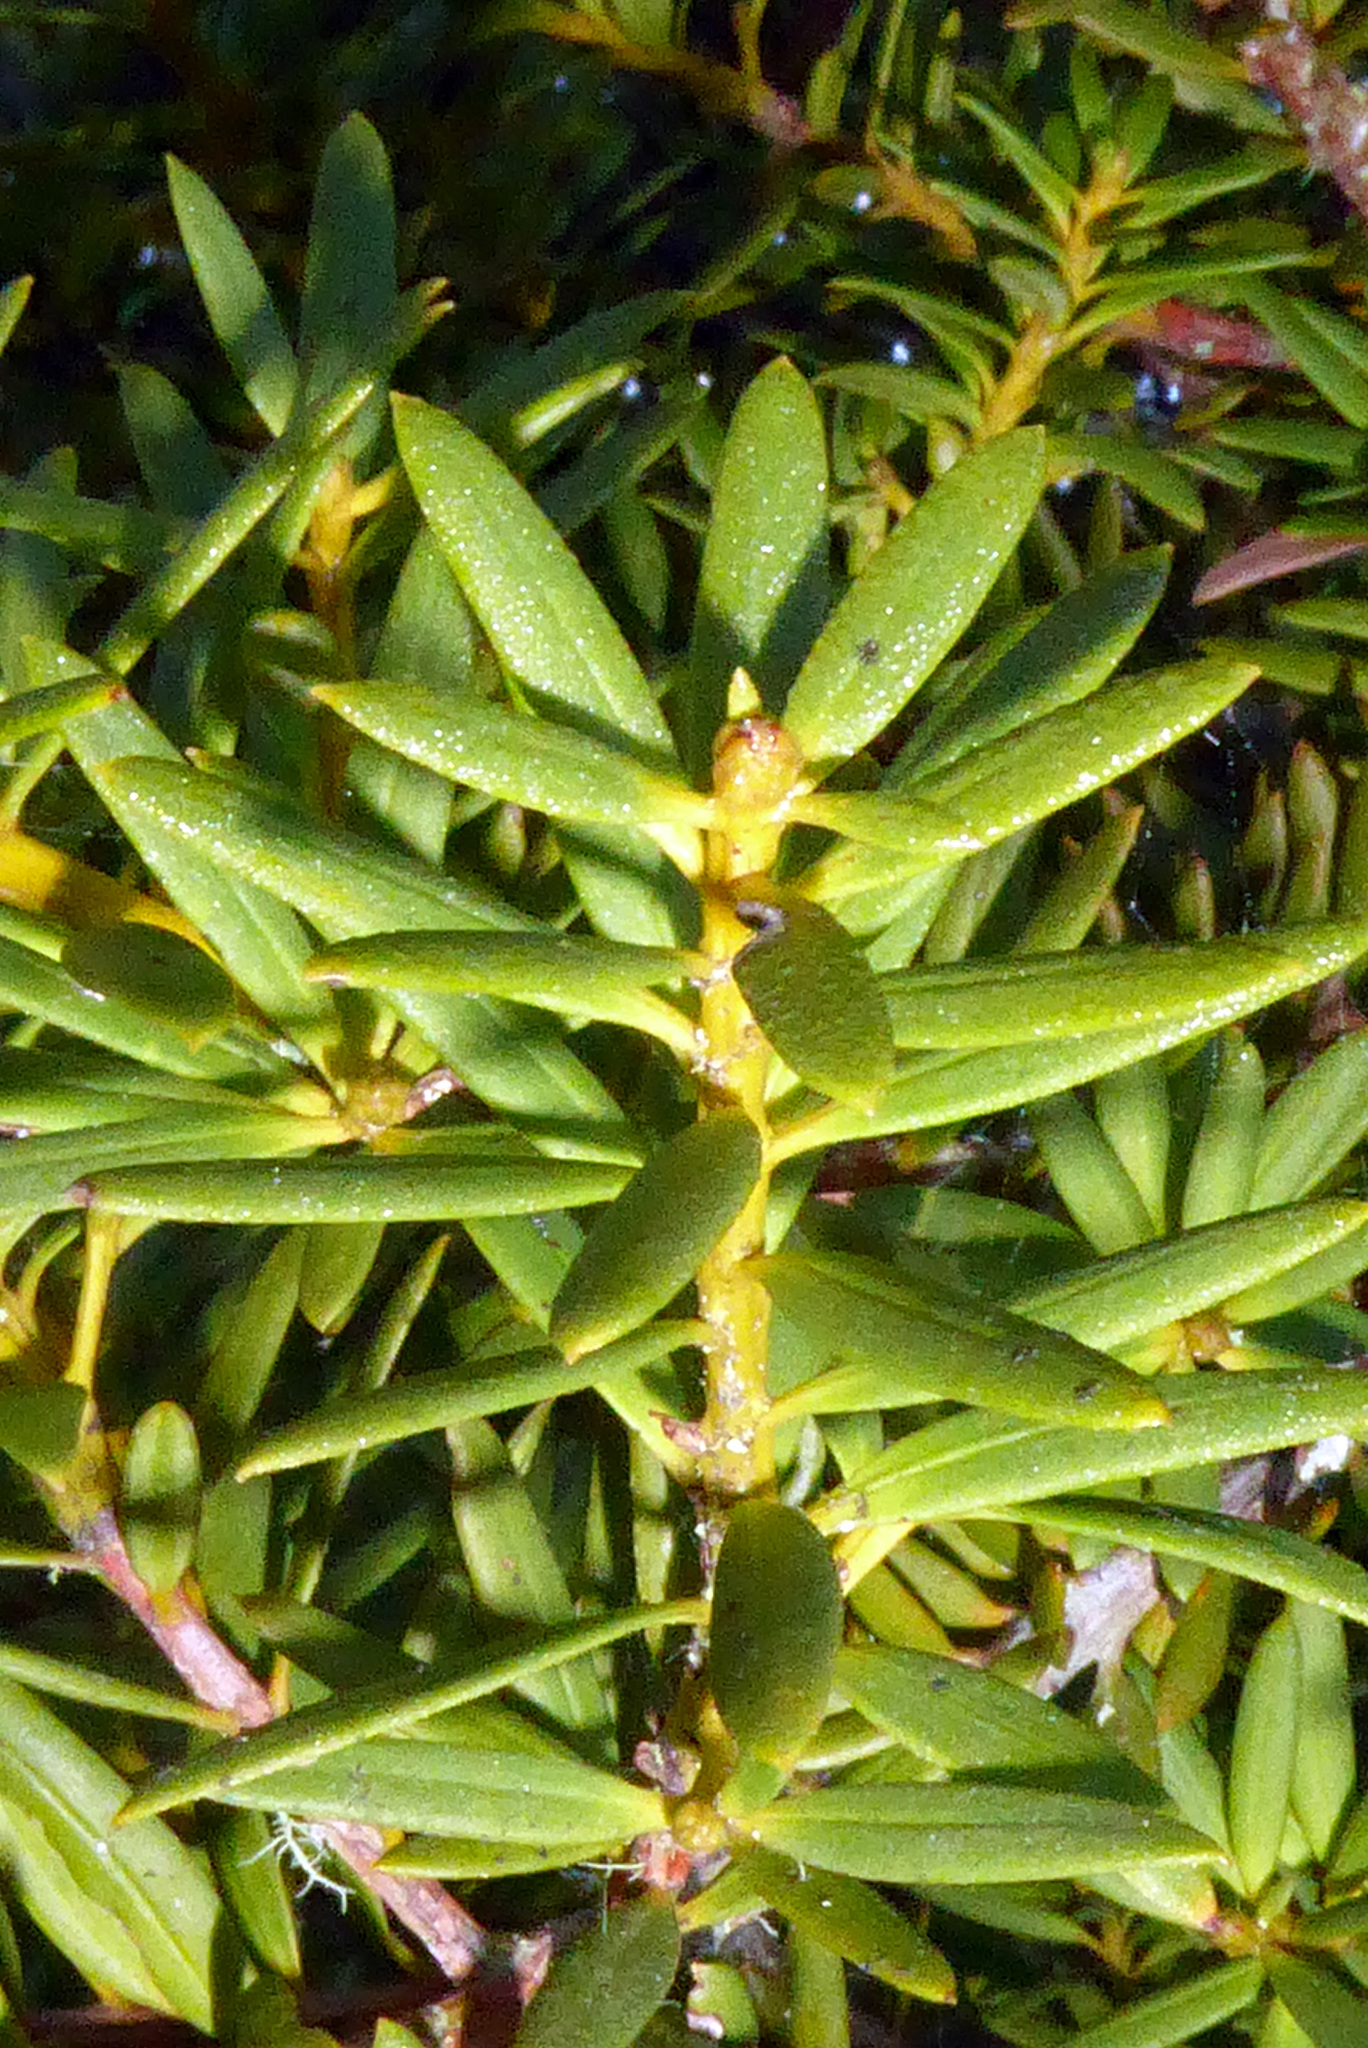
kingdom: Plantae
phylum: Tracheophyta
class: Pinopsida
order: Pinales
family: Podocarpaceae
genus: Podocarpus
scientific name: Podocarpus laetus
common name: Hall's totara
